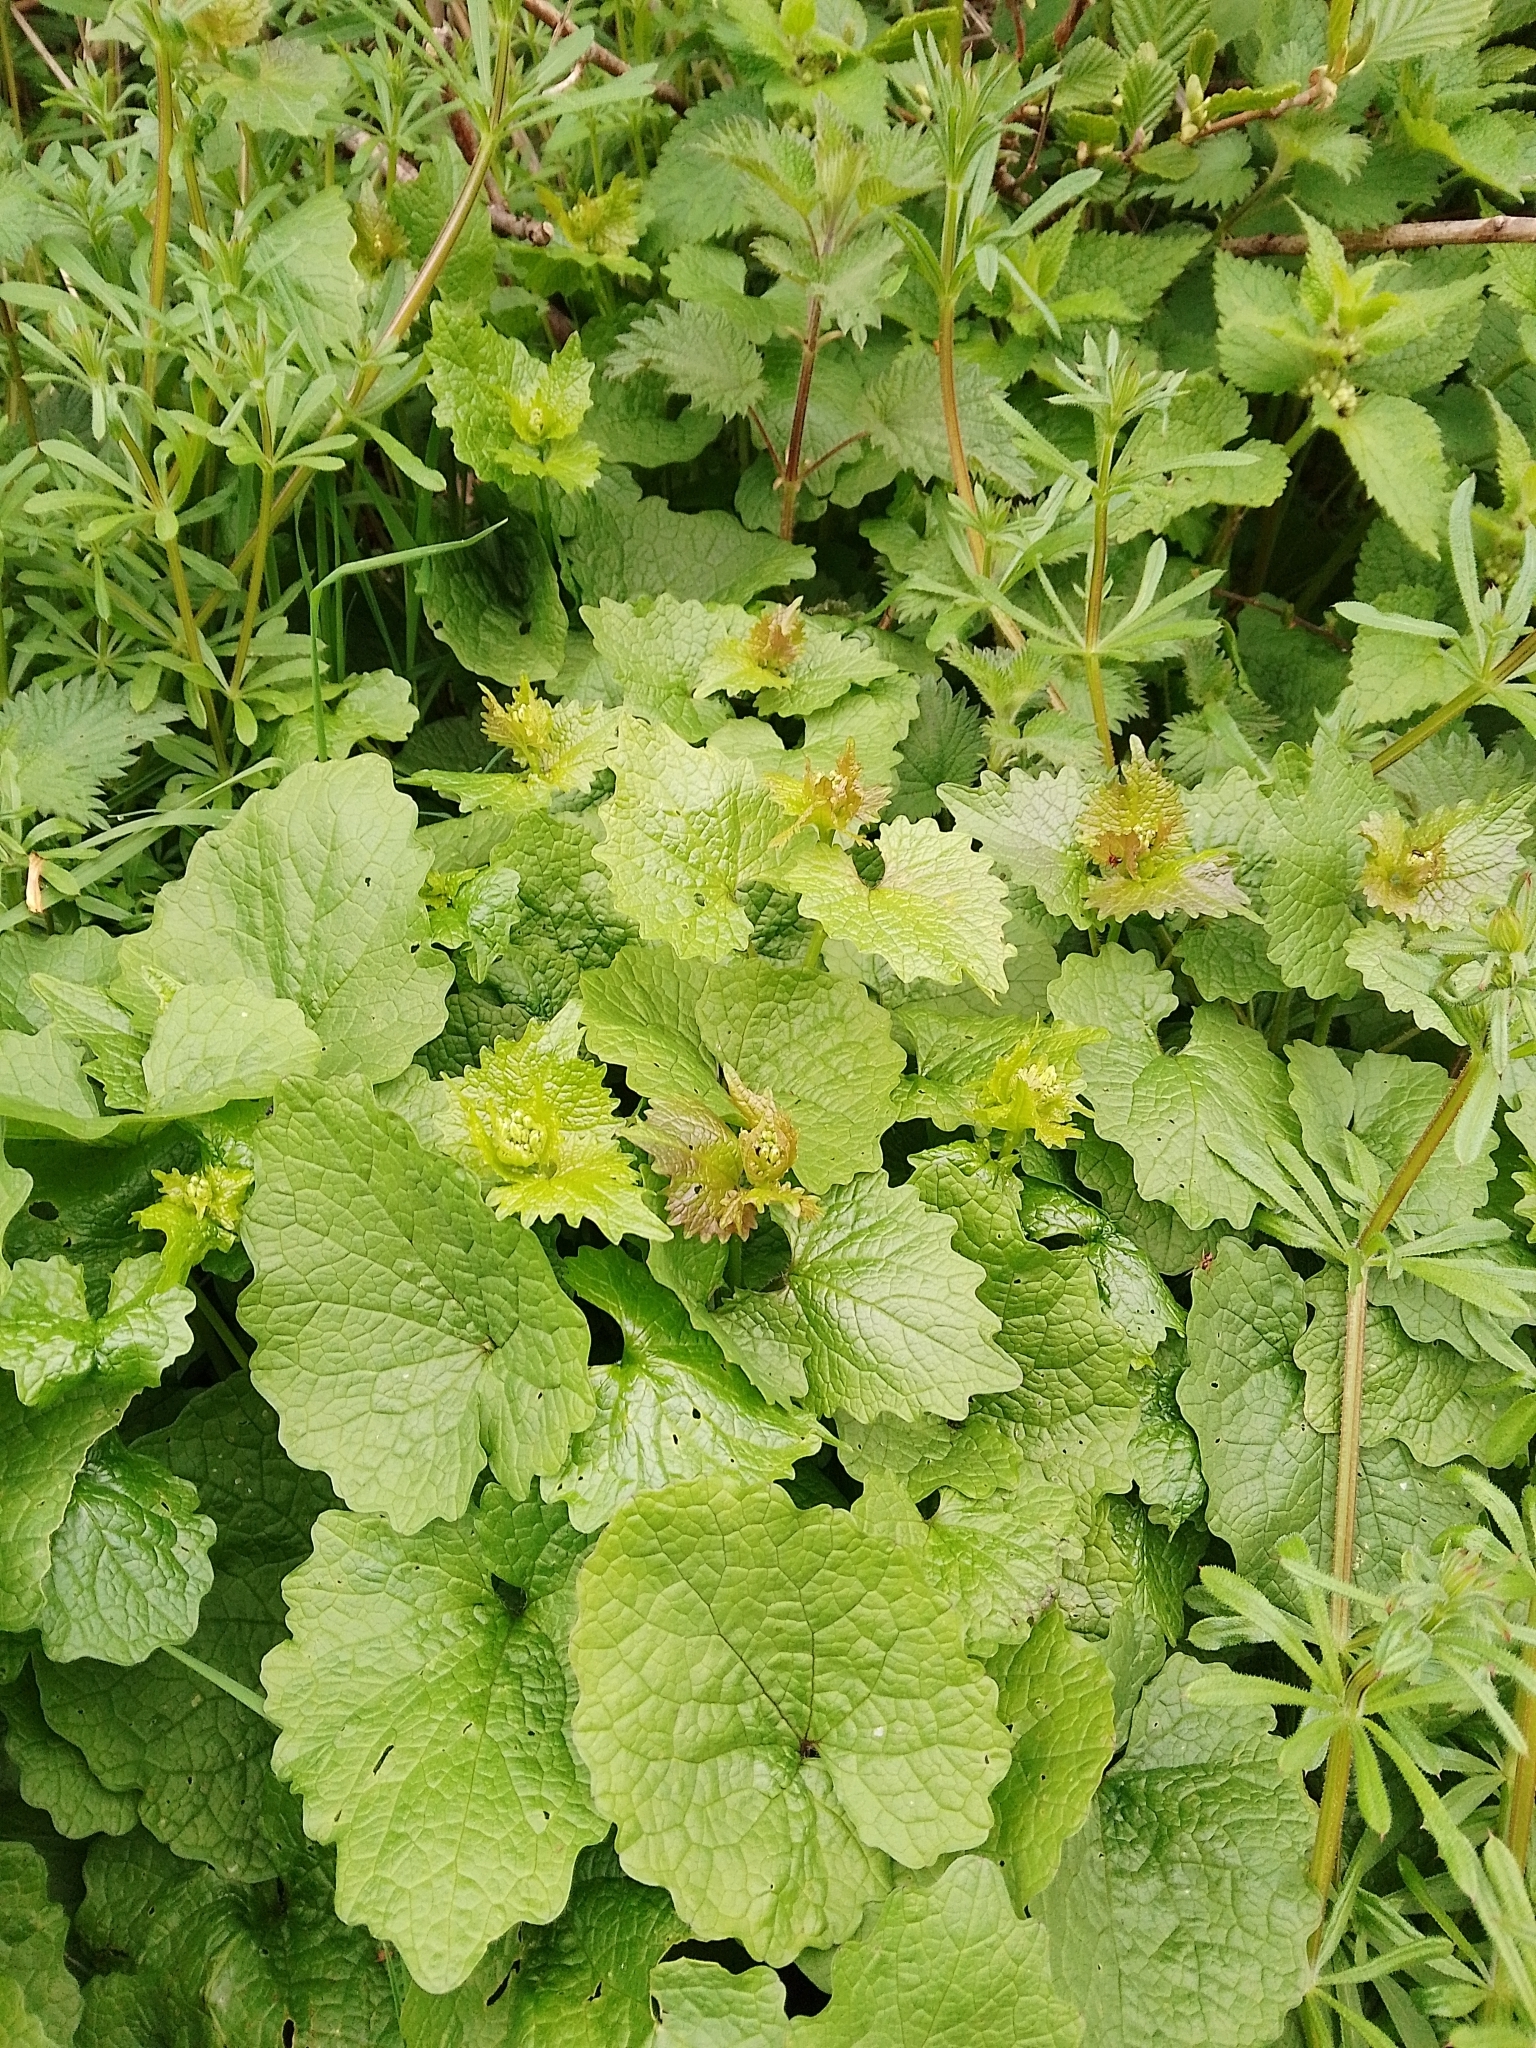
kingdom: Plantae
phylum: Tracheophyta
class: Magnoliopsida
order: Brassicales
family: Brassicaceae
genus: Alliaria
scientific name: Alliaria petiolata
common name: Garlic mustard
